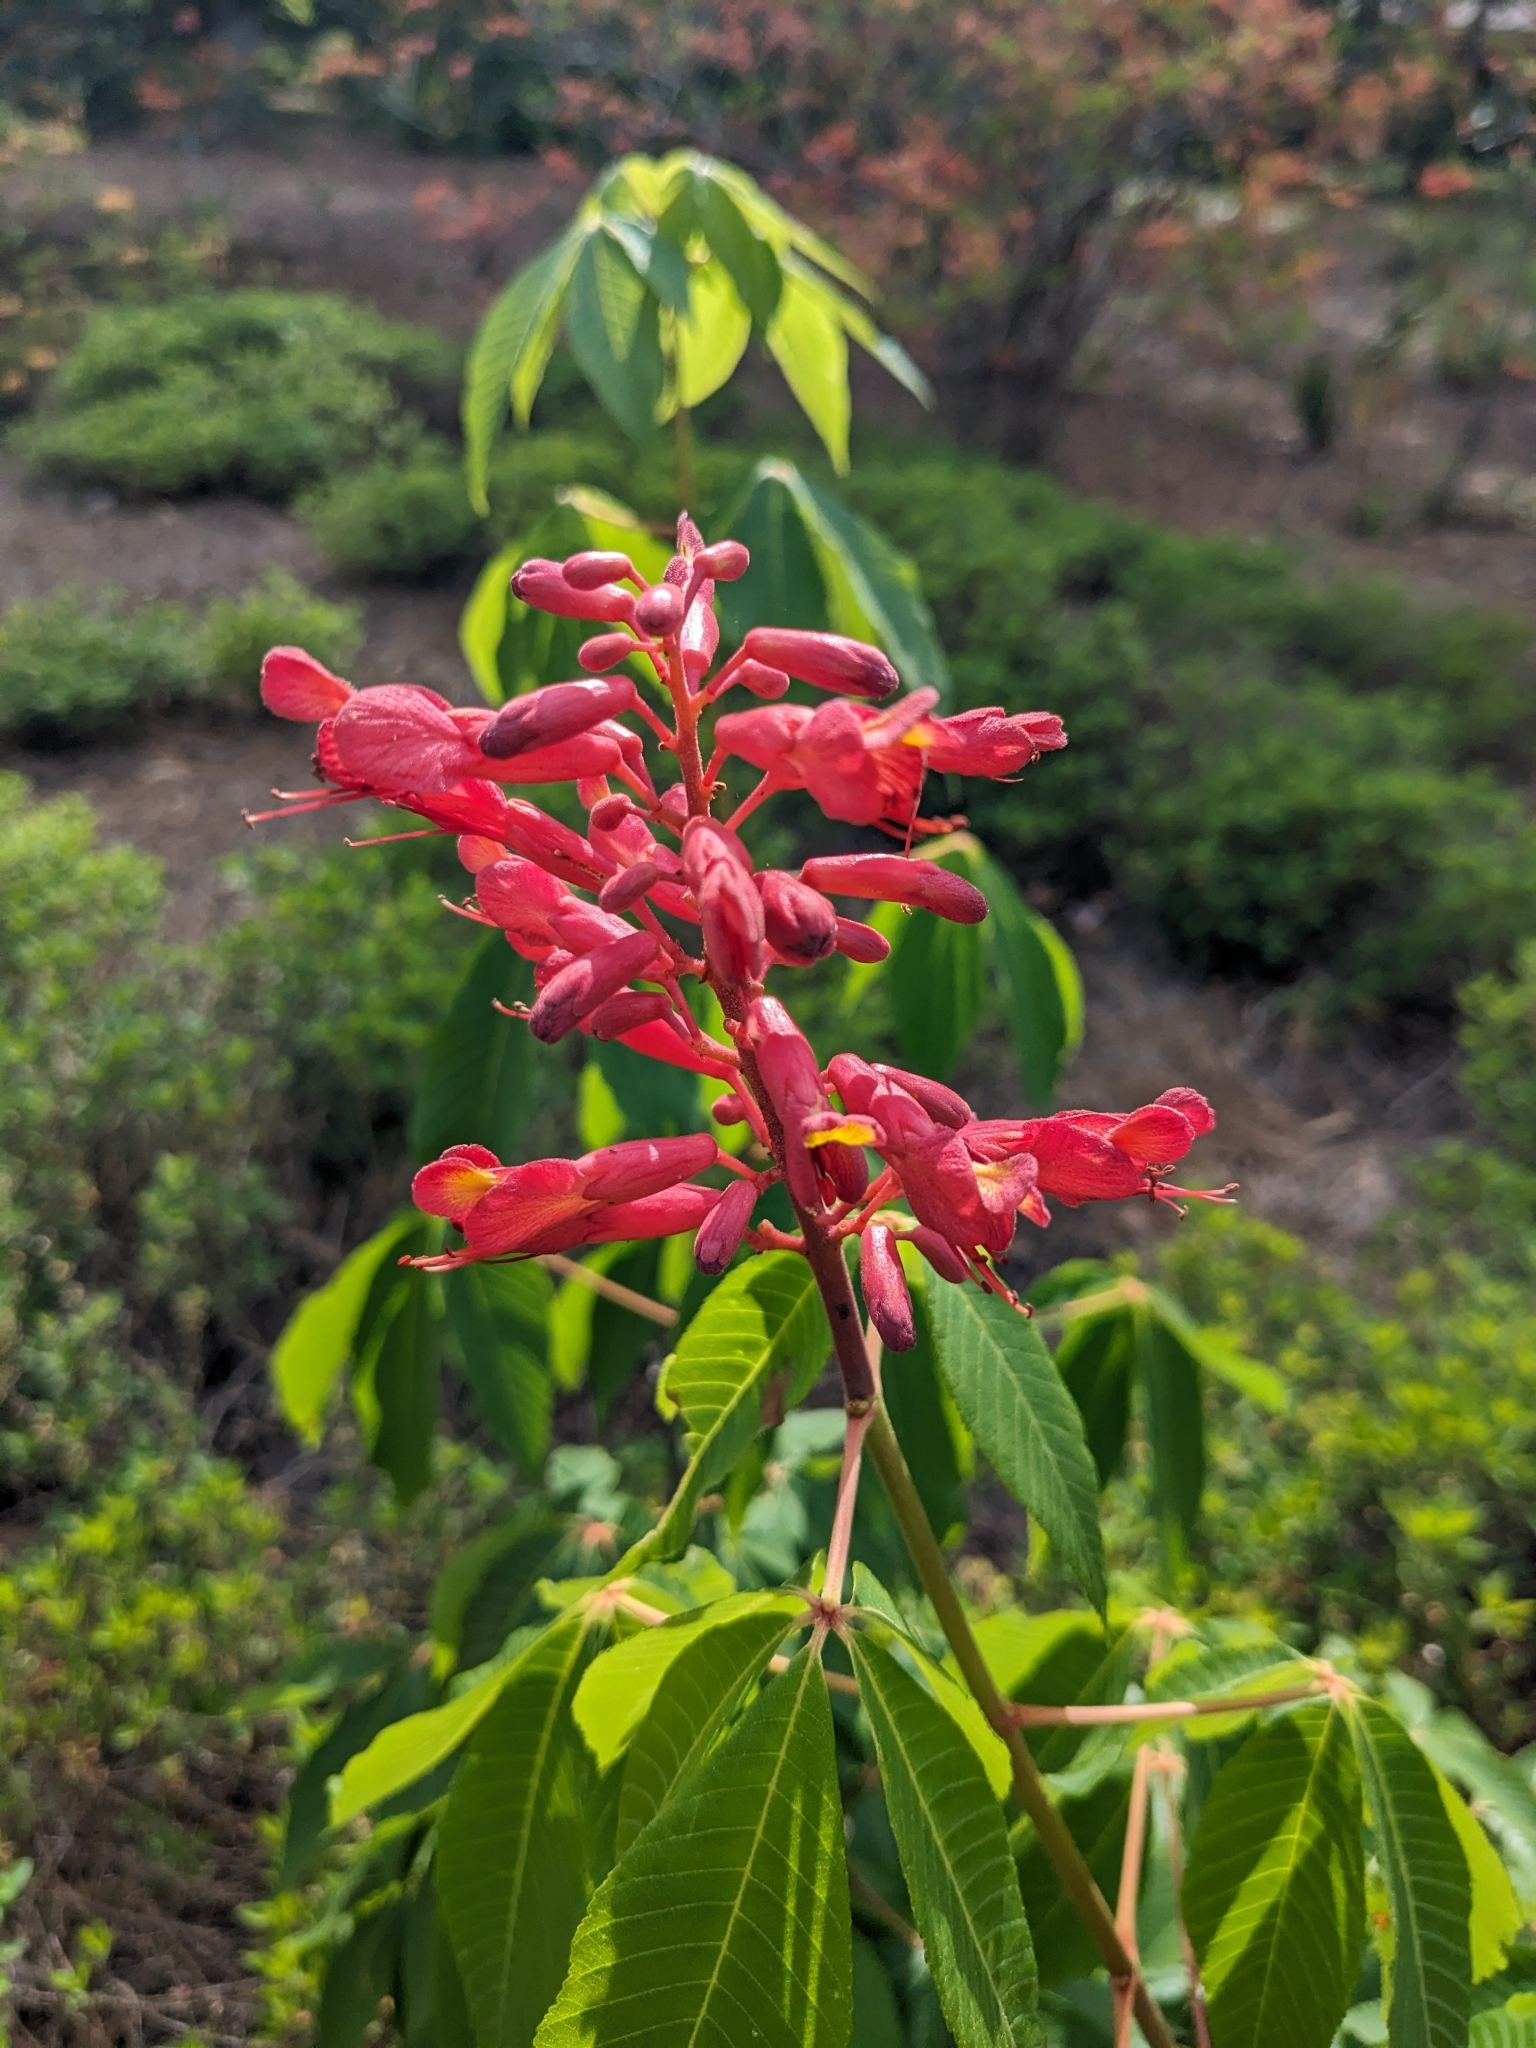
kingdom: Plantae
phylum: Tracheophyta
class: Magnoliopsida
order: Sapindales
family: Sapindaceae
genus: Aesculus
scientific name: Aesculus pavia
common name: Red buckeye
